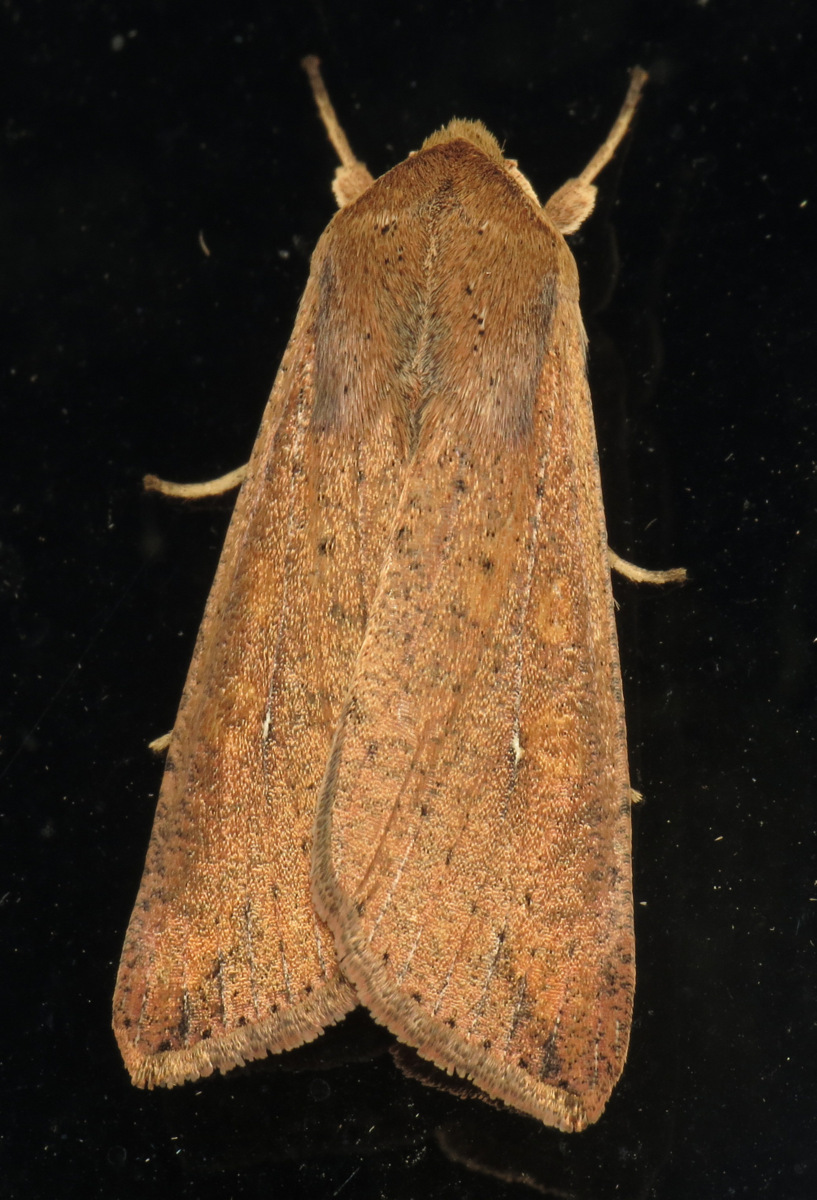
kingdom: Animalia
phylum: Arthropoda
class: Insecta
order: Lepidoptera
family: Noctuidae
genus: Mythimna
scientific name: Mythimna unipuncta
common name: White-speck
